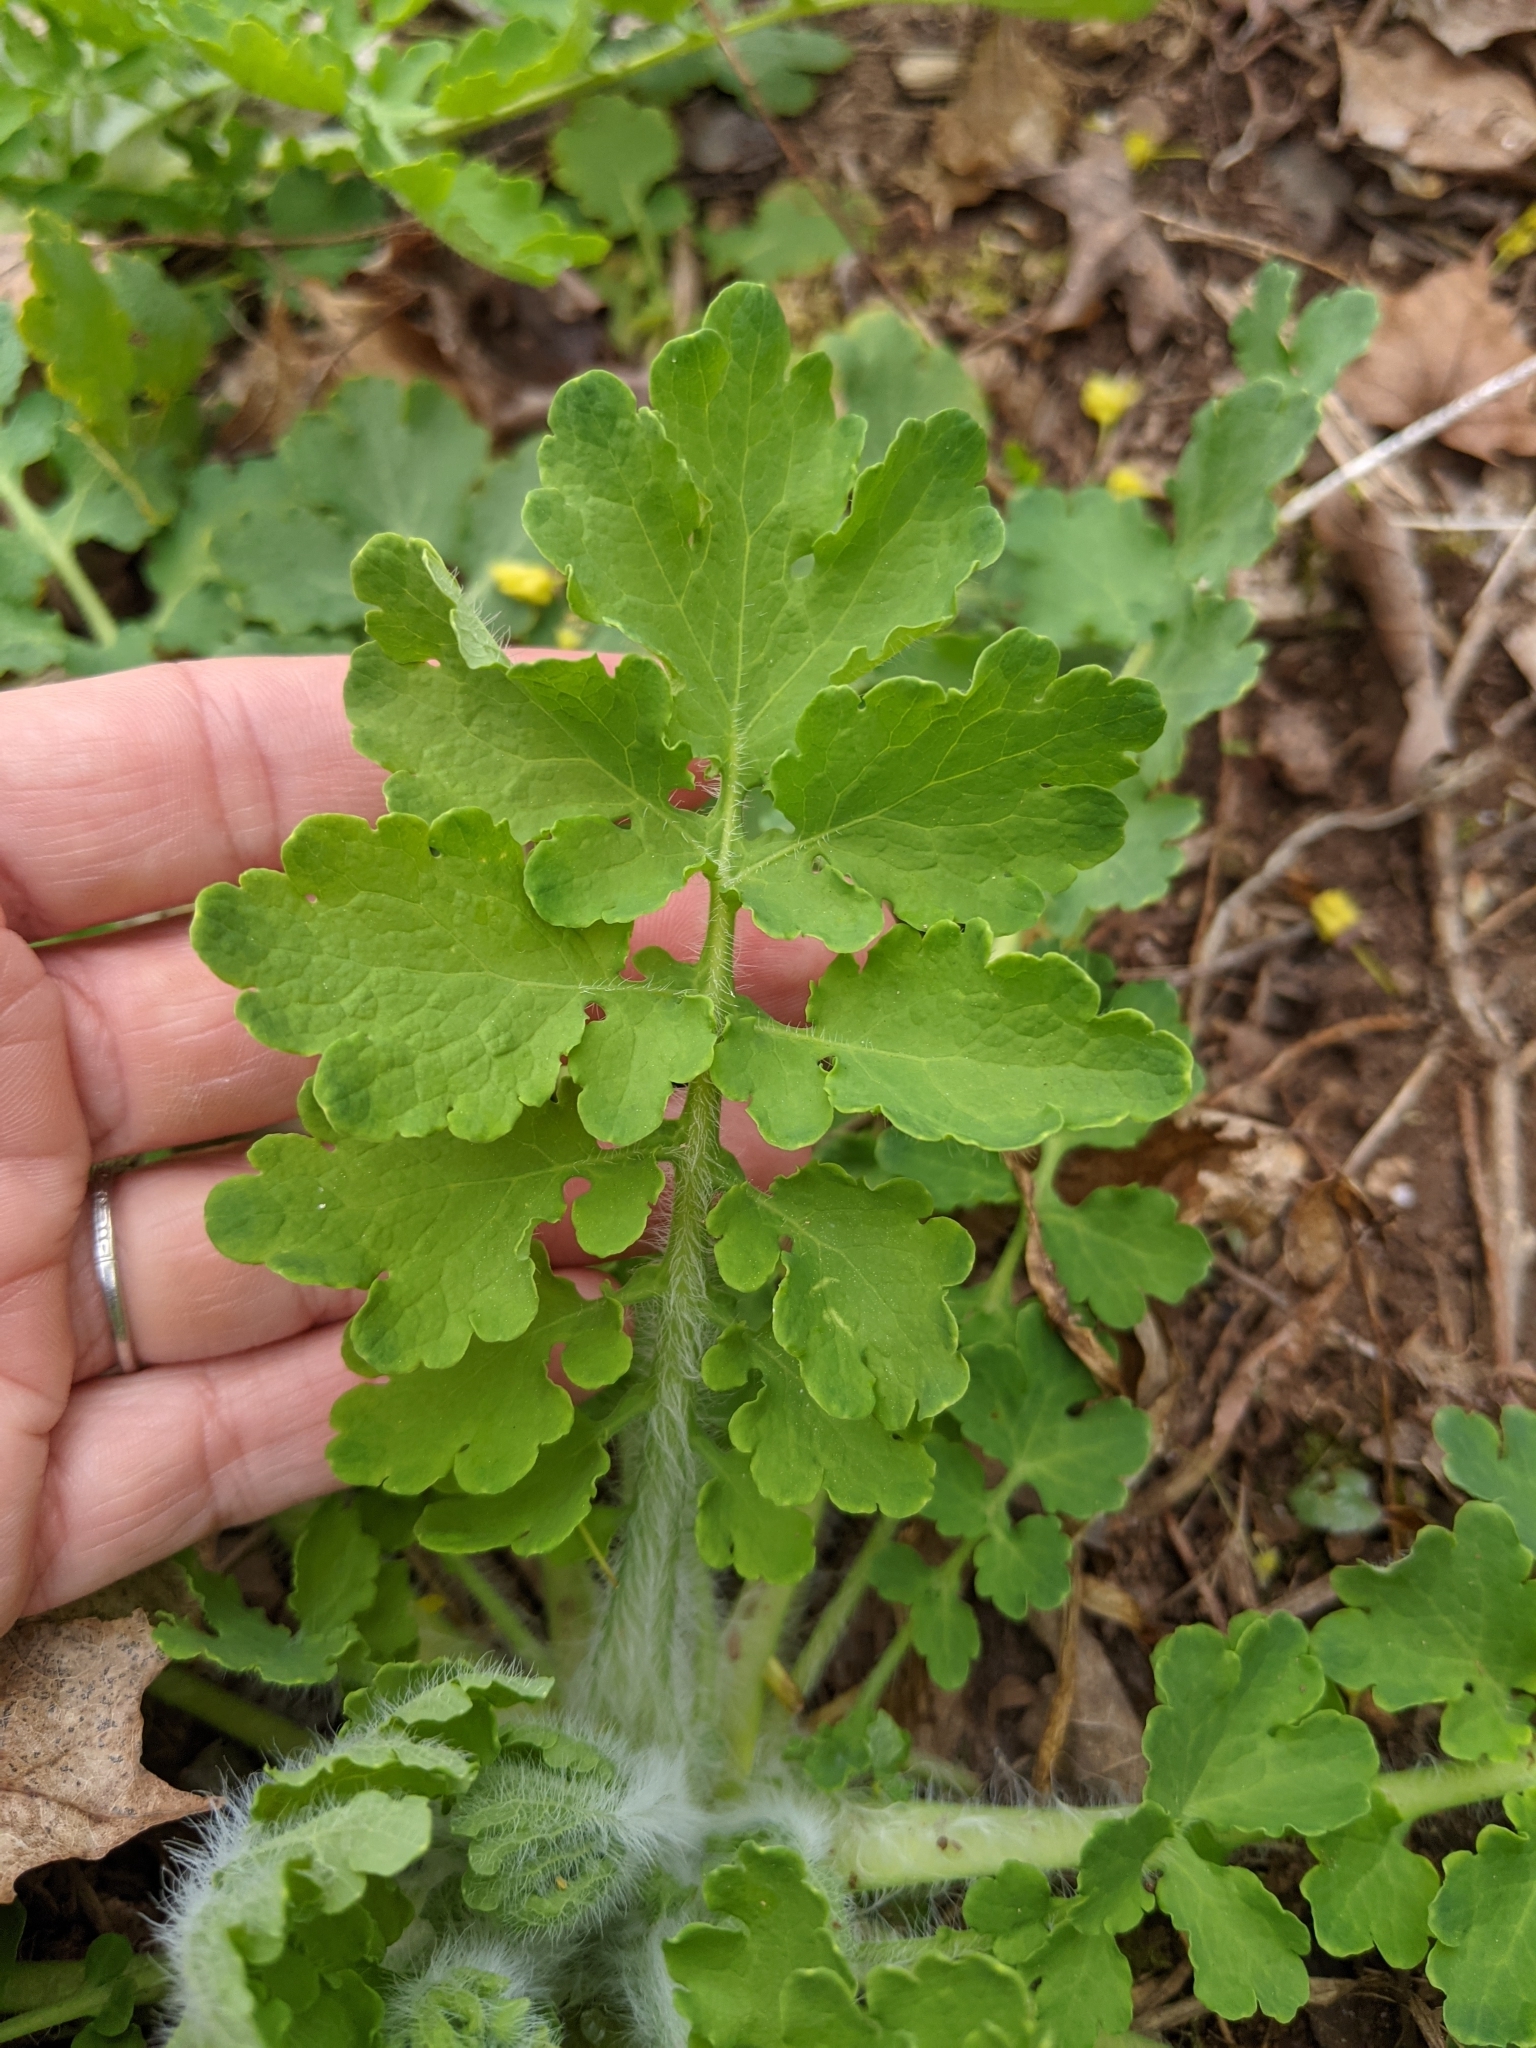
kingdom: Plantae
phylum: Tracheophyta
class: Magnoliopsida
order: Ranunculales
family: Papaveraceae
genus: Chelidonium
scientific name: Chelidonium majus
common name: Greater celandine
